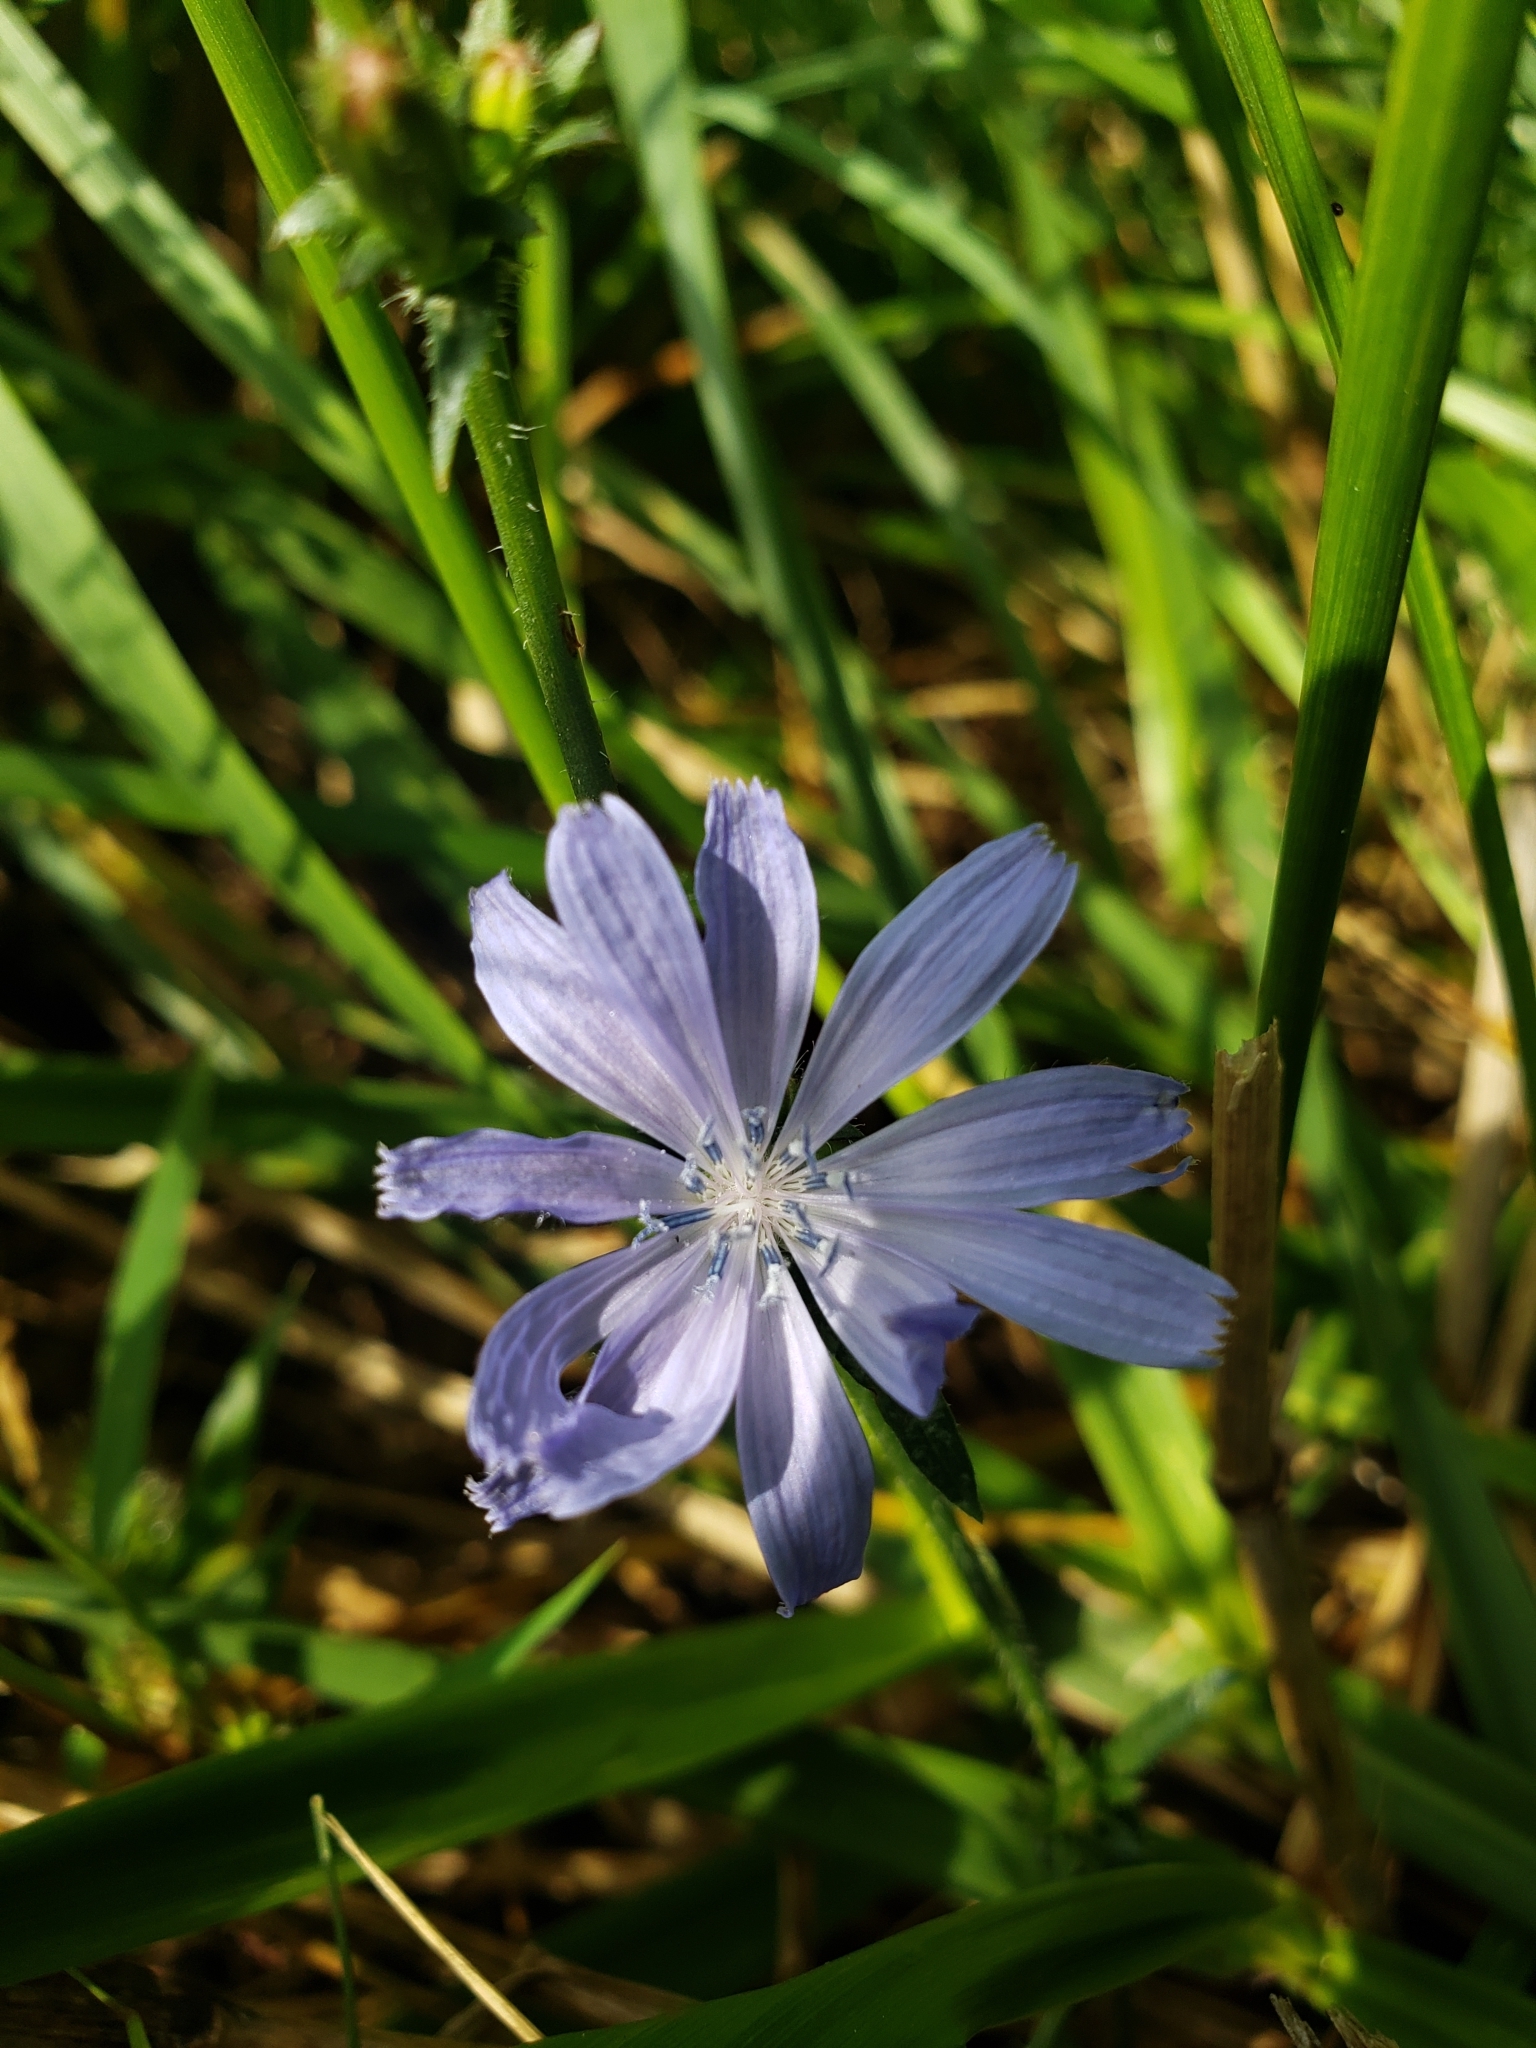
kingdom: Plantae
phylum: Tracheophyta
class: Magnoliopsida
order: Asterales
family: Asteraceae
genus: Cichorium
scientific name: Cichorium intybus
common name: Chicory
